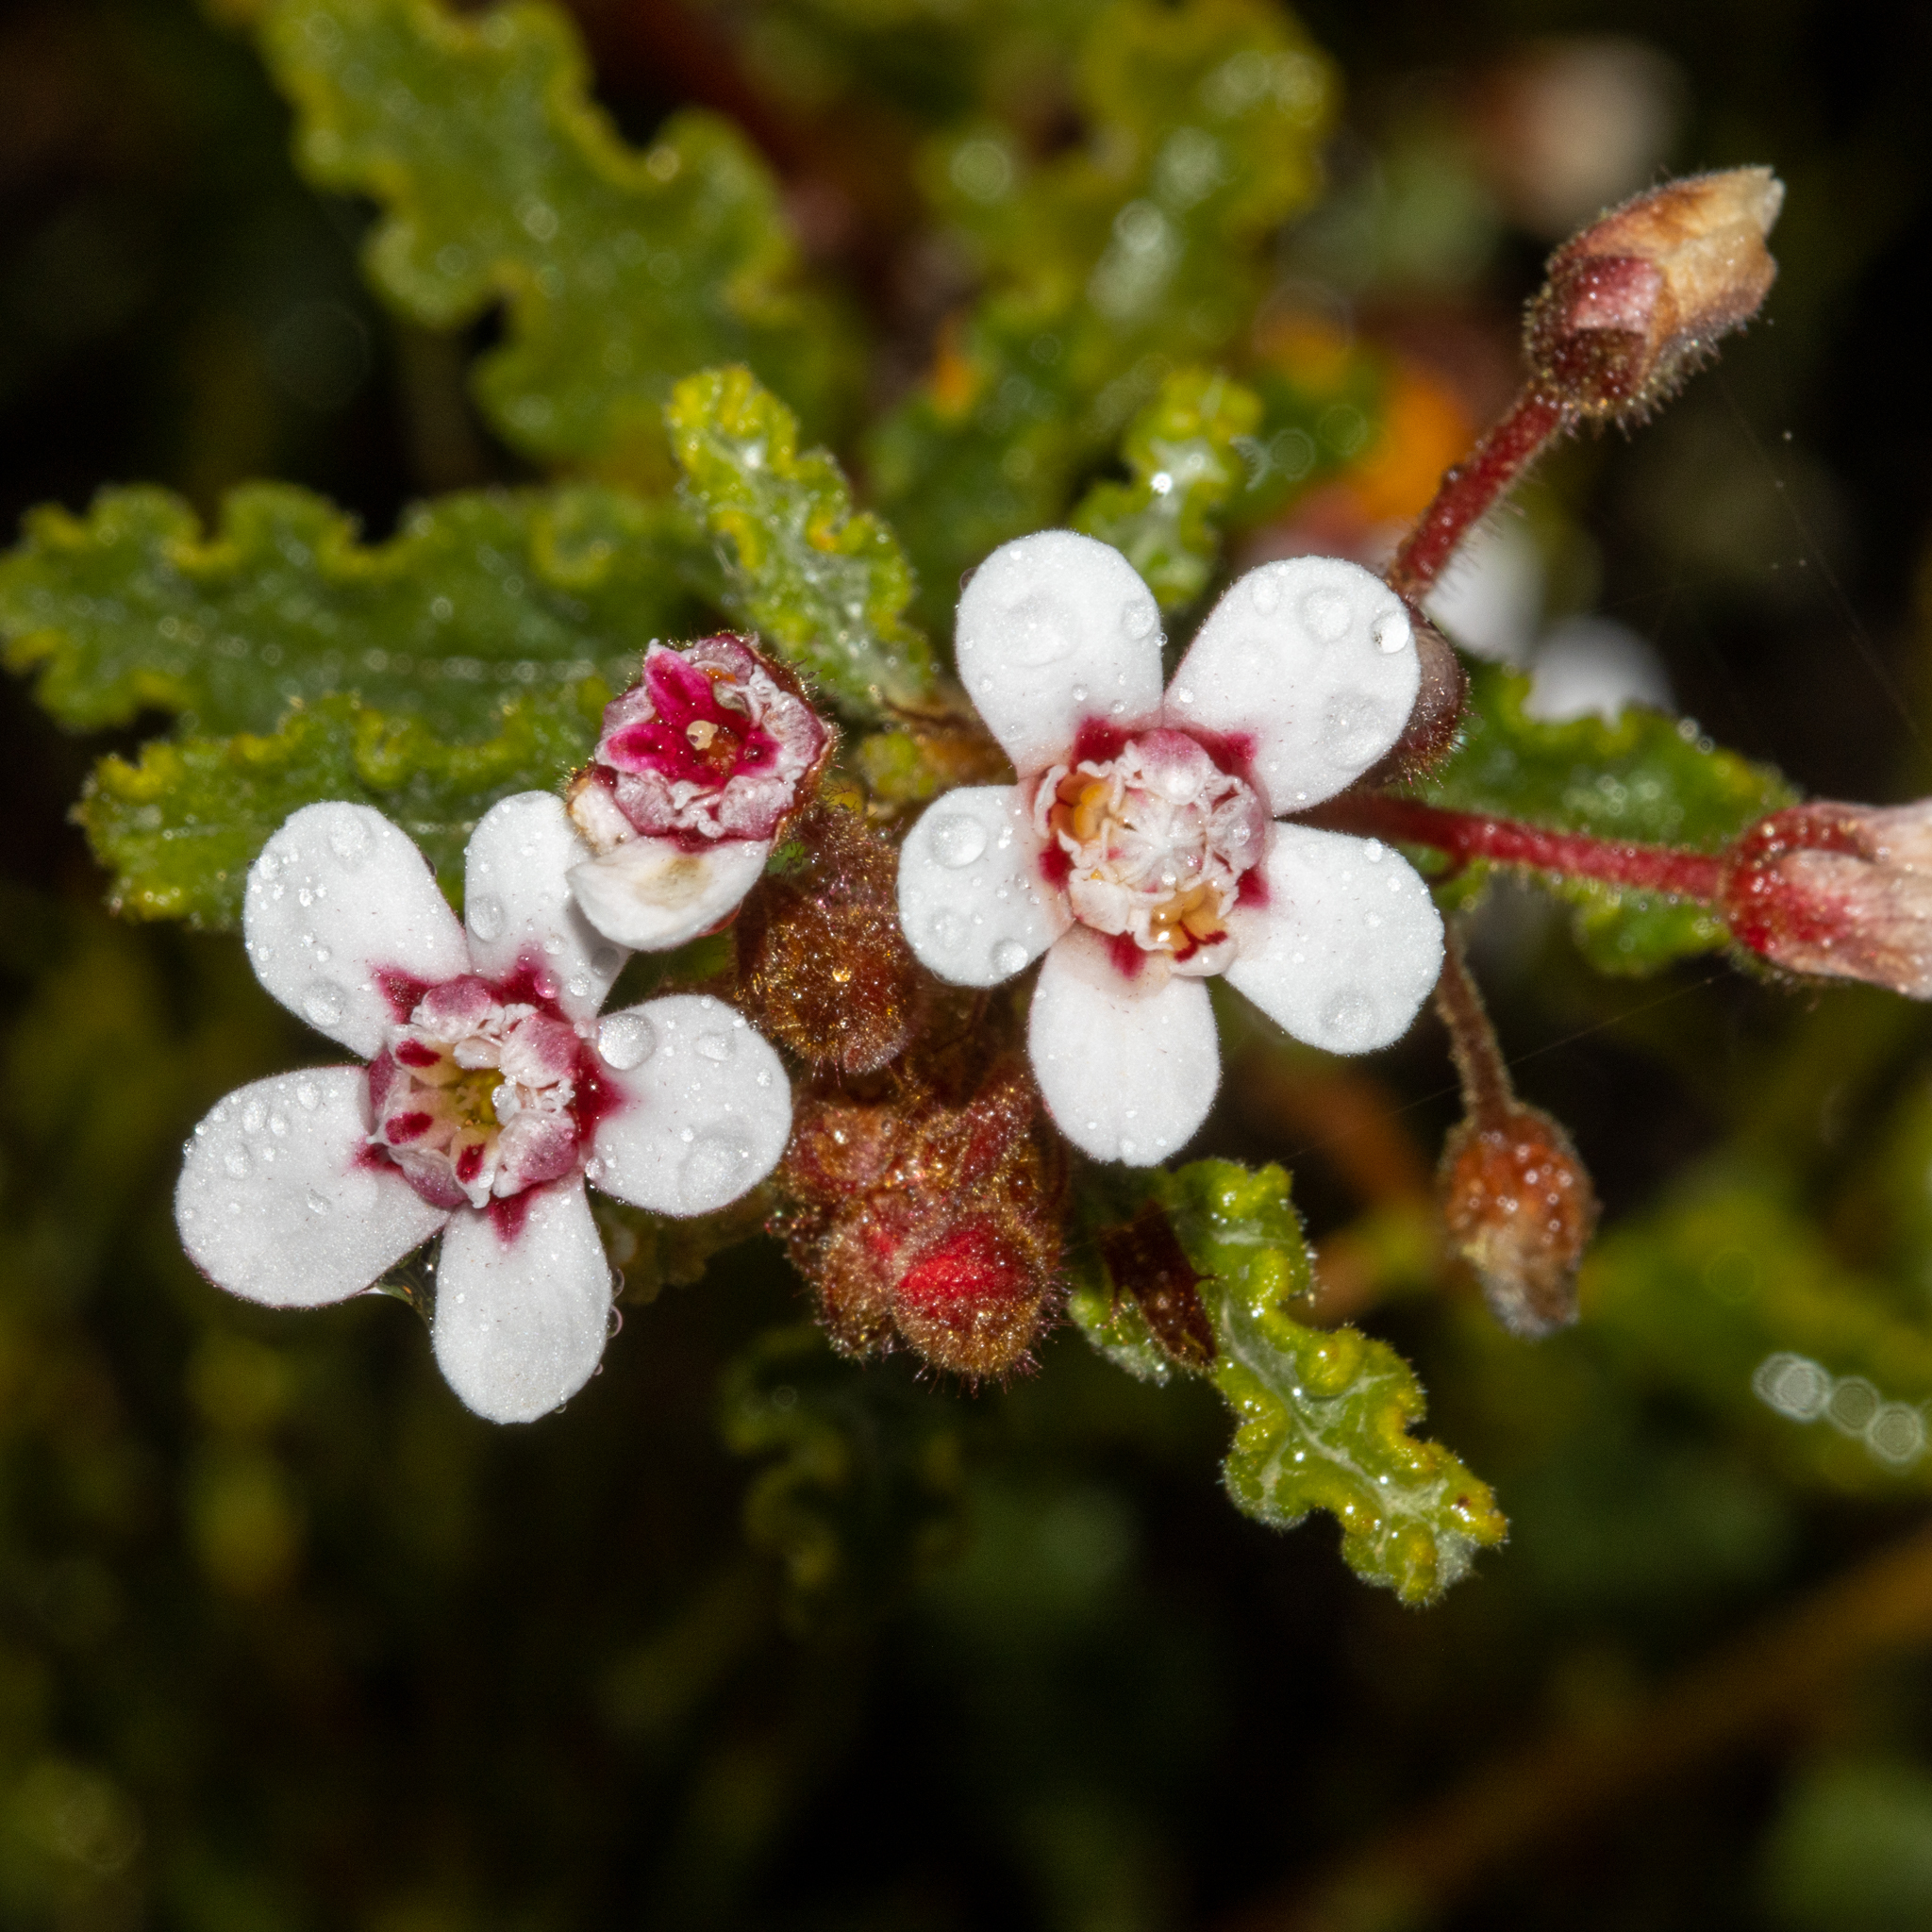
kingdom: Plantae
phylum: Tracheophyta
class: Magnoliopsida
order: Malvales
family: Malvaceae
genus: Androcalva
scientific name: Androcalva pulchella
